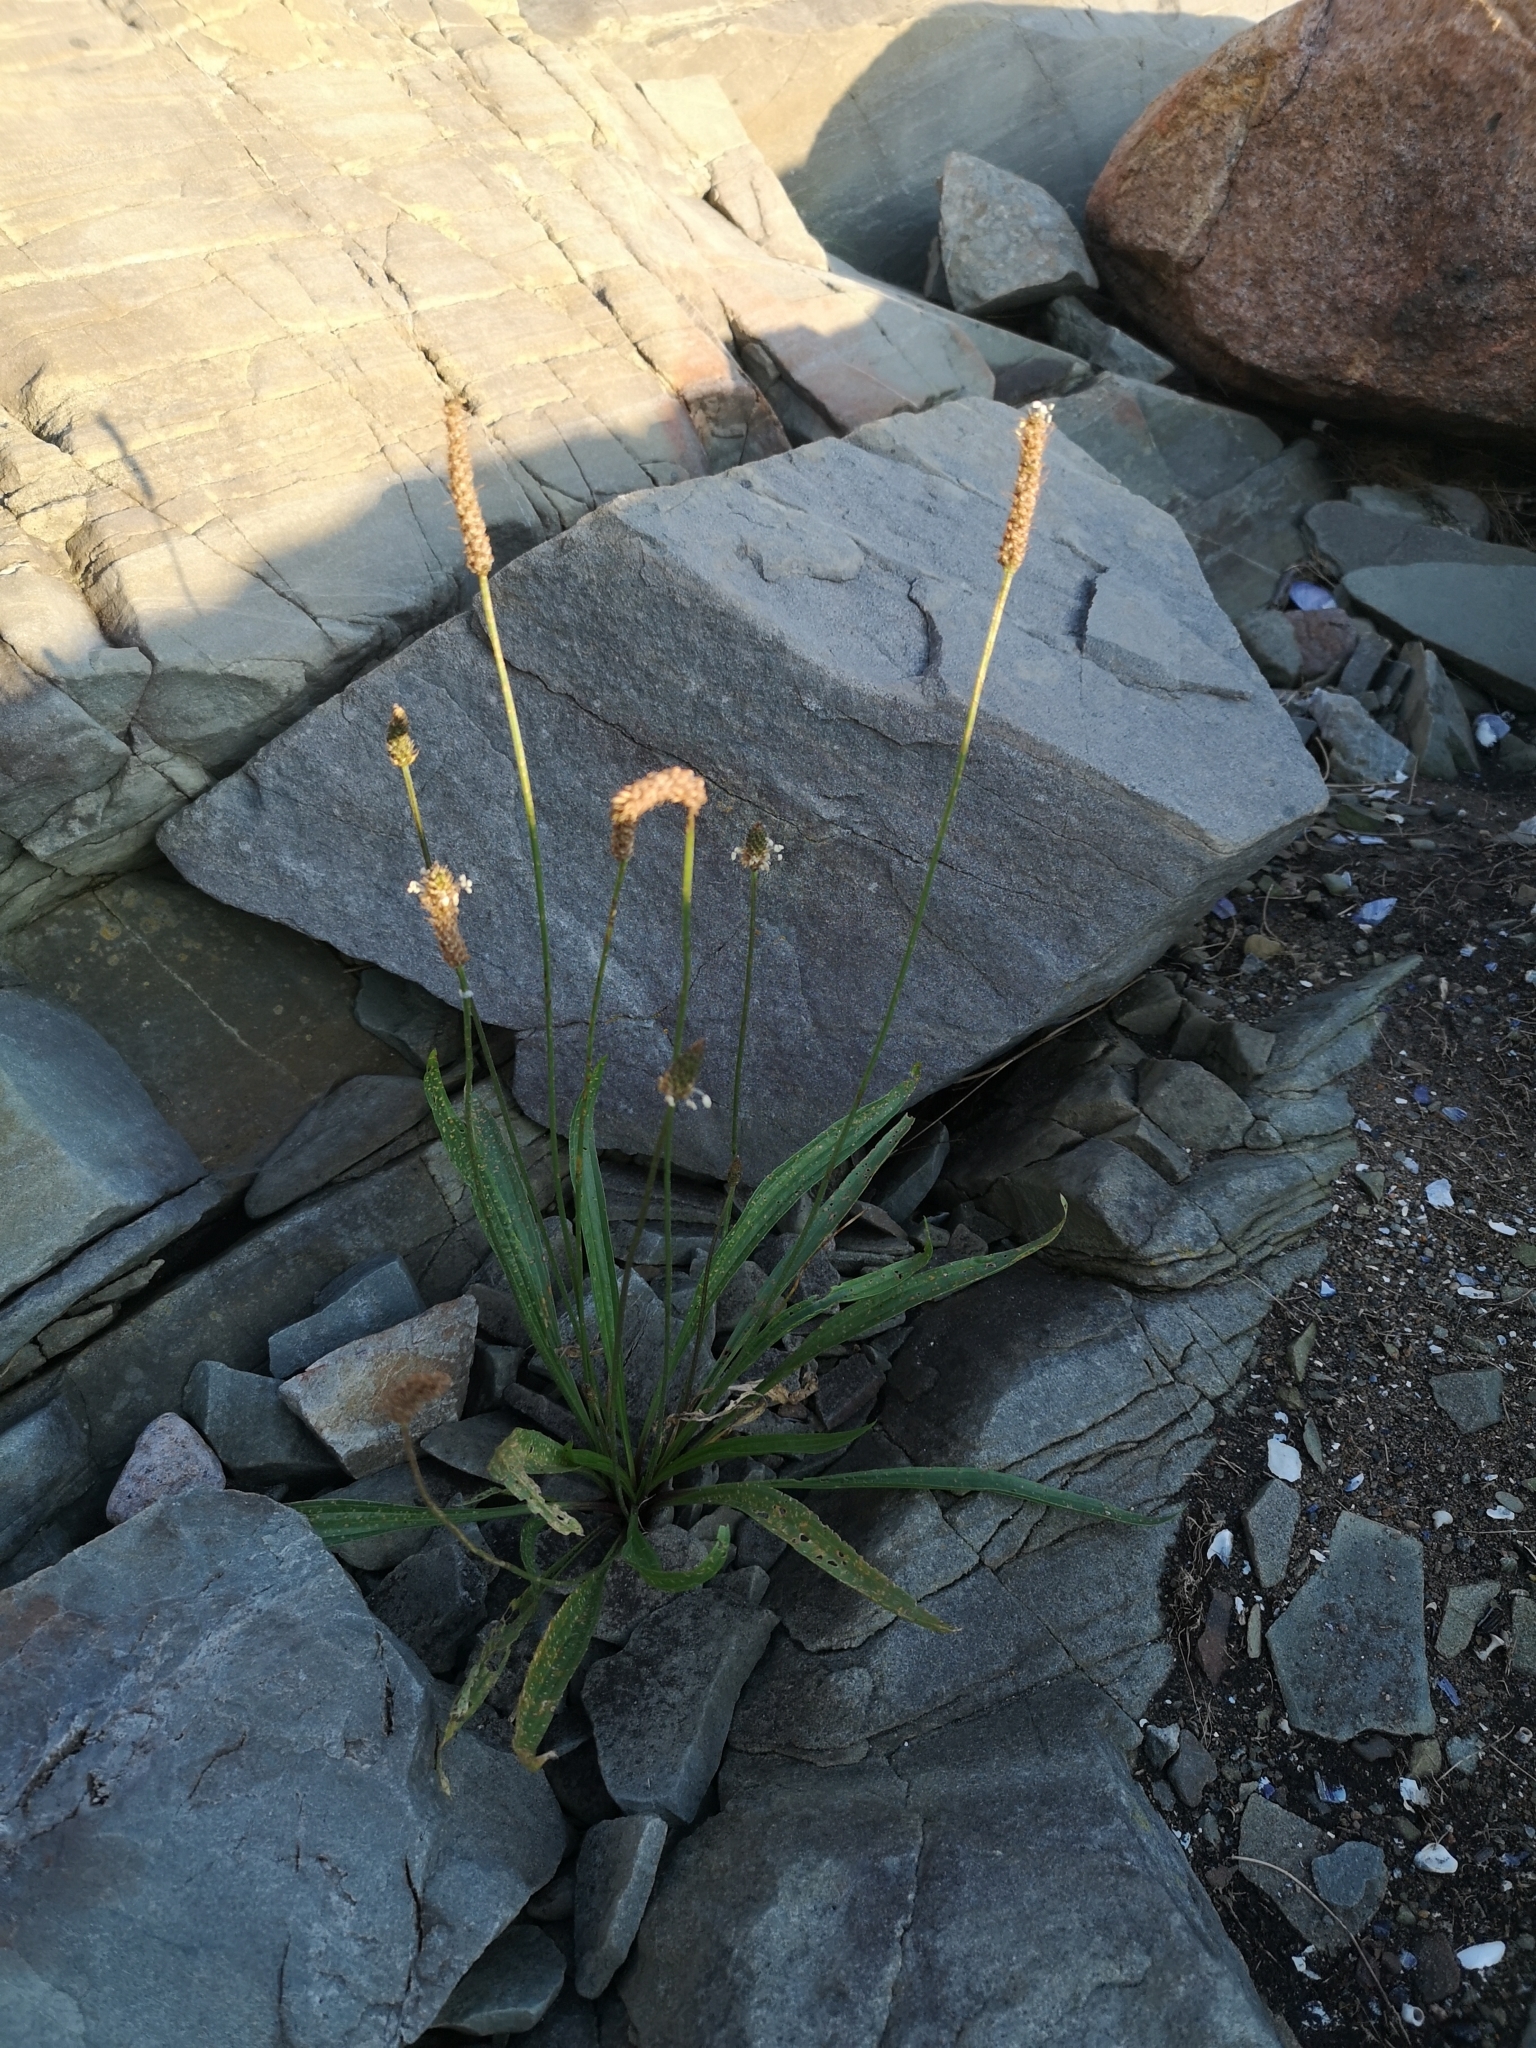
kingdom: Plantae
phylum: Tracheophyta
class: Magnoliopsida
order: Lamiales
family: Plantaginaceae
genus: Plantago
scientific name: Plantago lanceolata
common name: Ribwort plantain
